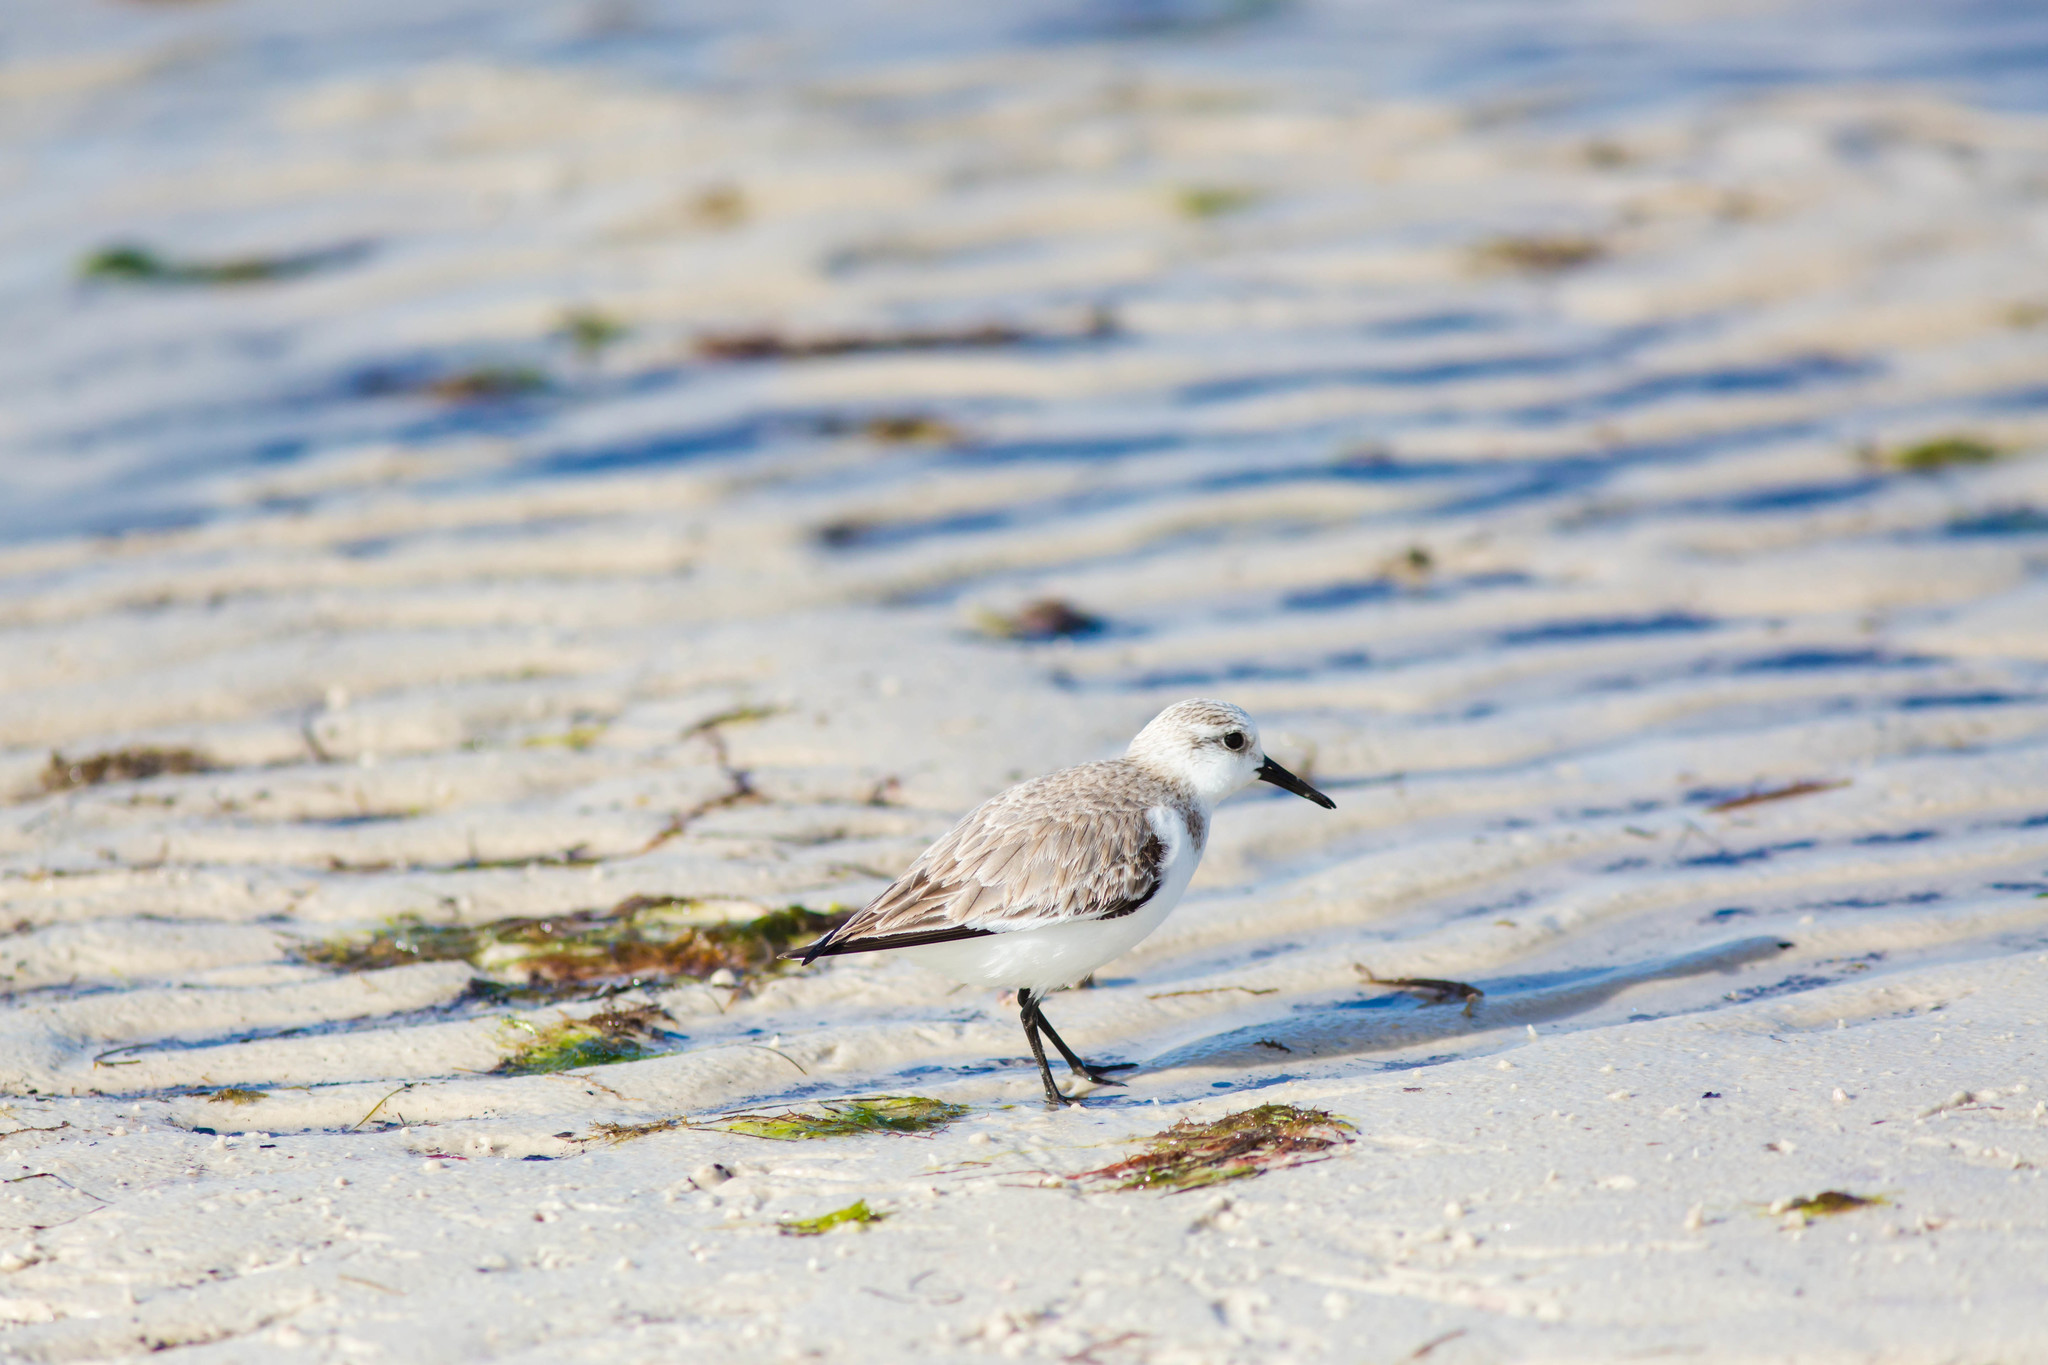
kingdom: Animalia
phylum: Chordata
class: Aves
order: Charadriiformes
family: Scolopacidae
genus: Calidris
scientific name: Calidris alba
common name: Sanderling
